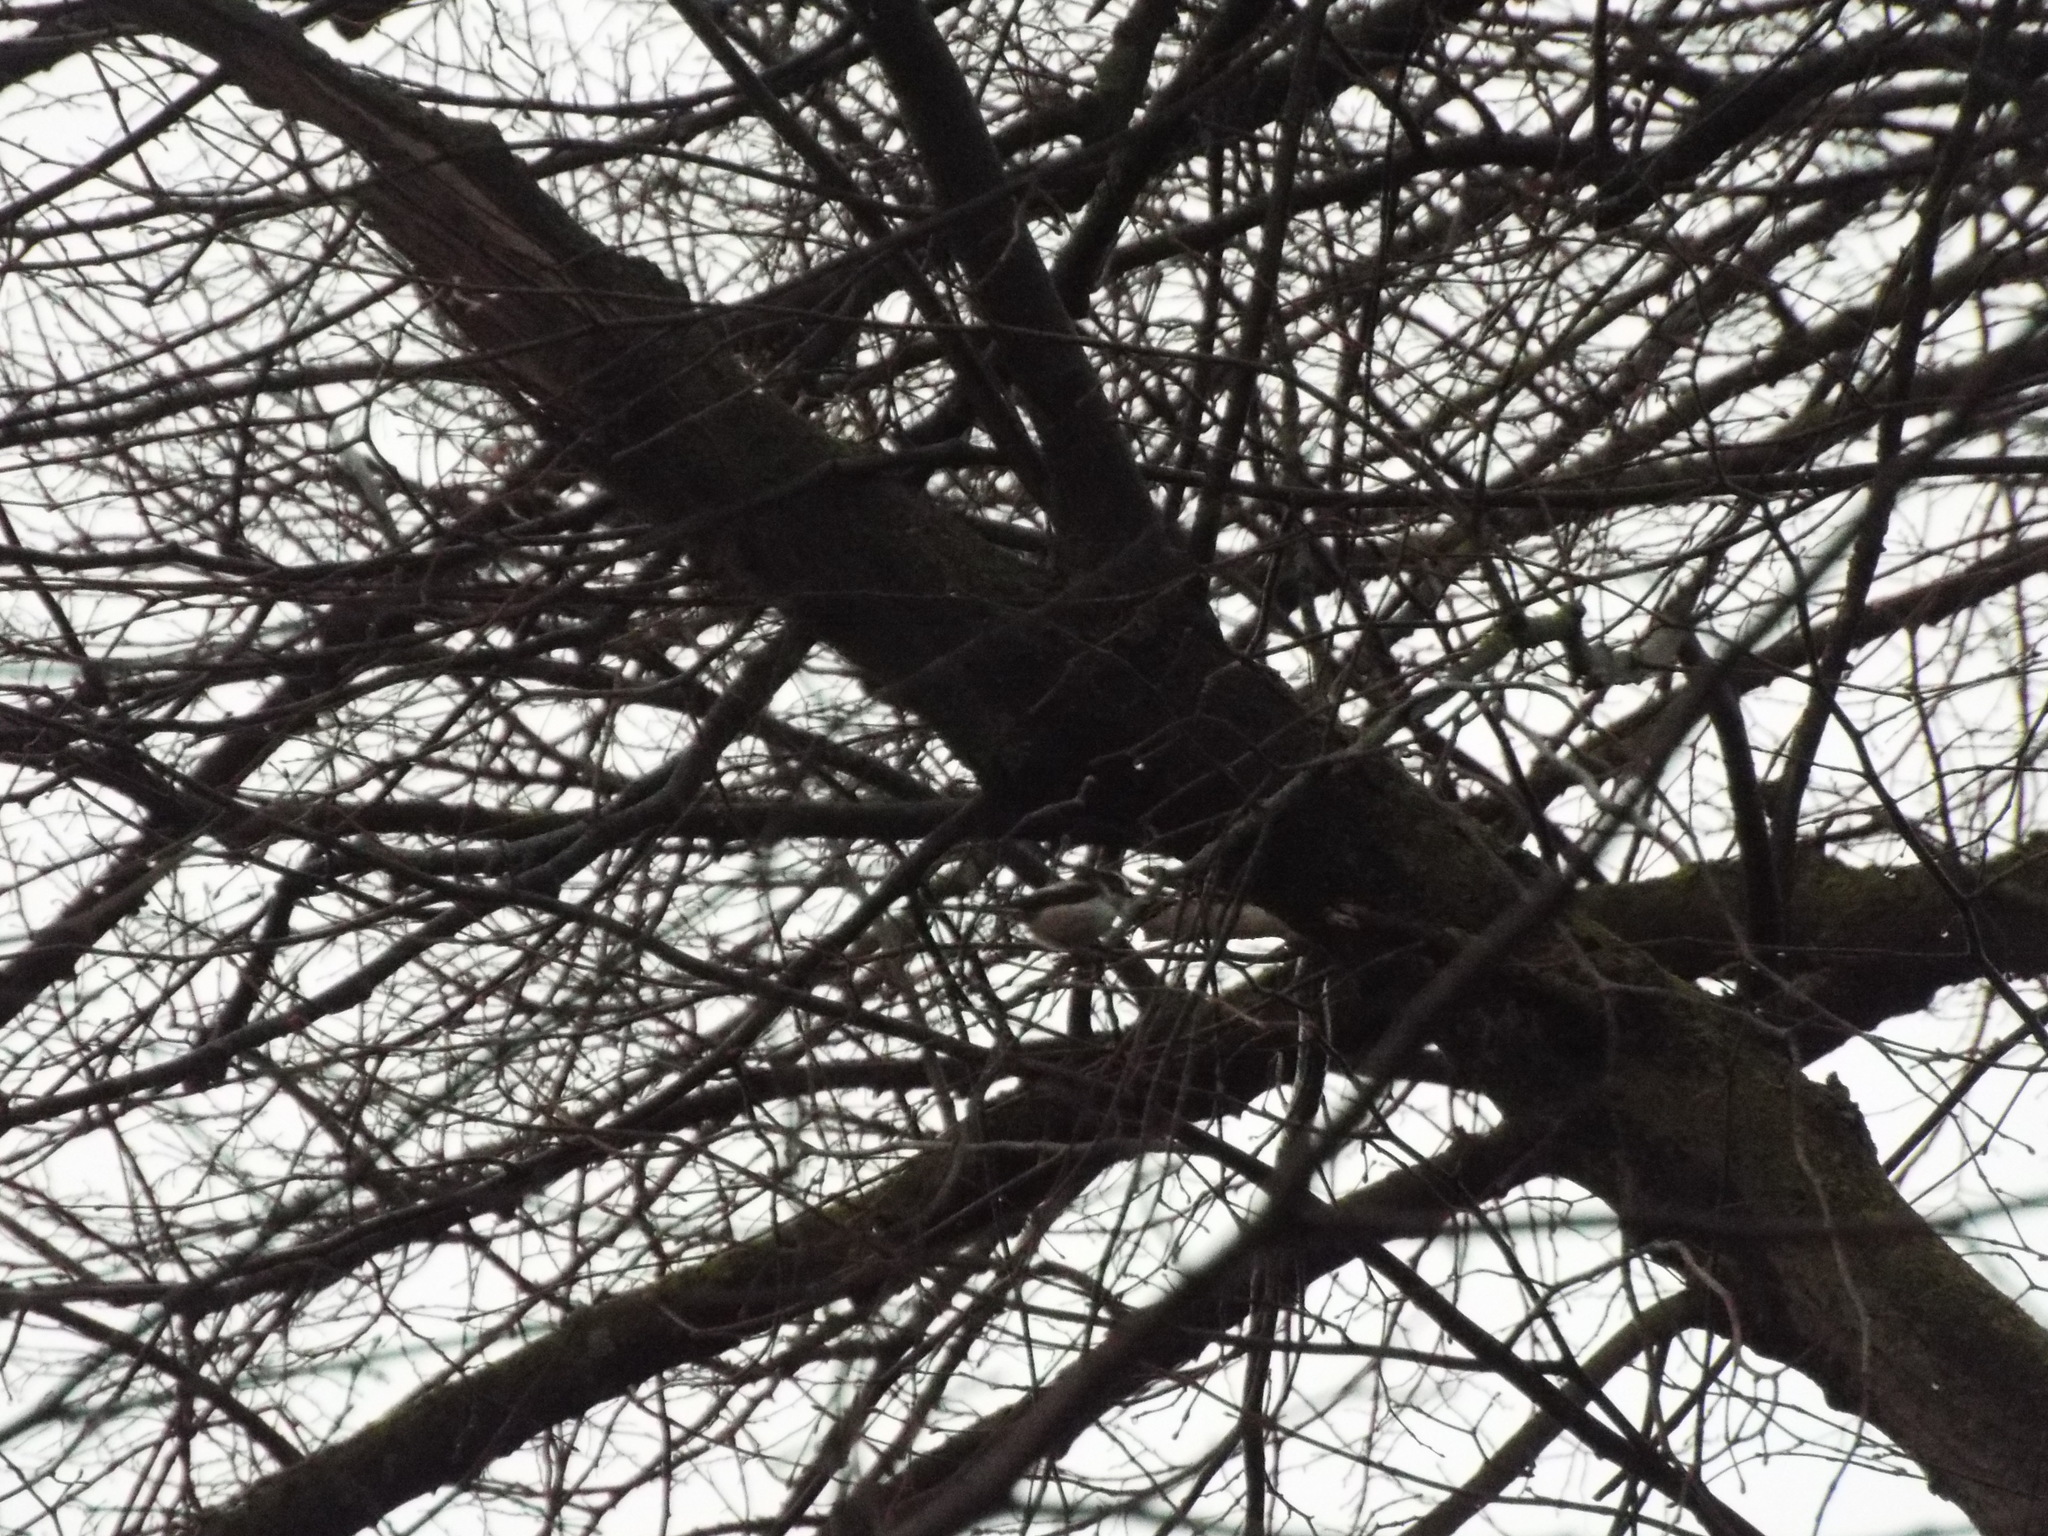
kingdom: Animalia
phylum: Chordata
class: Aves
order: Passeriformes
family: Aegithalidae
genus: Aegithalos
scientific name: Aegithalos caudatus
